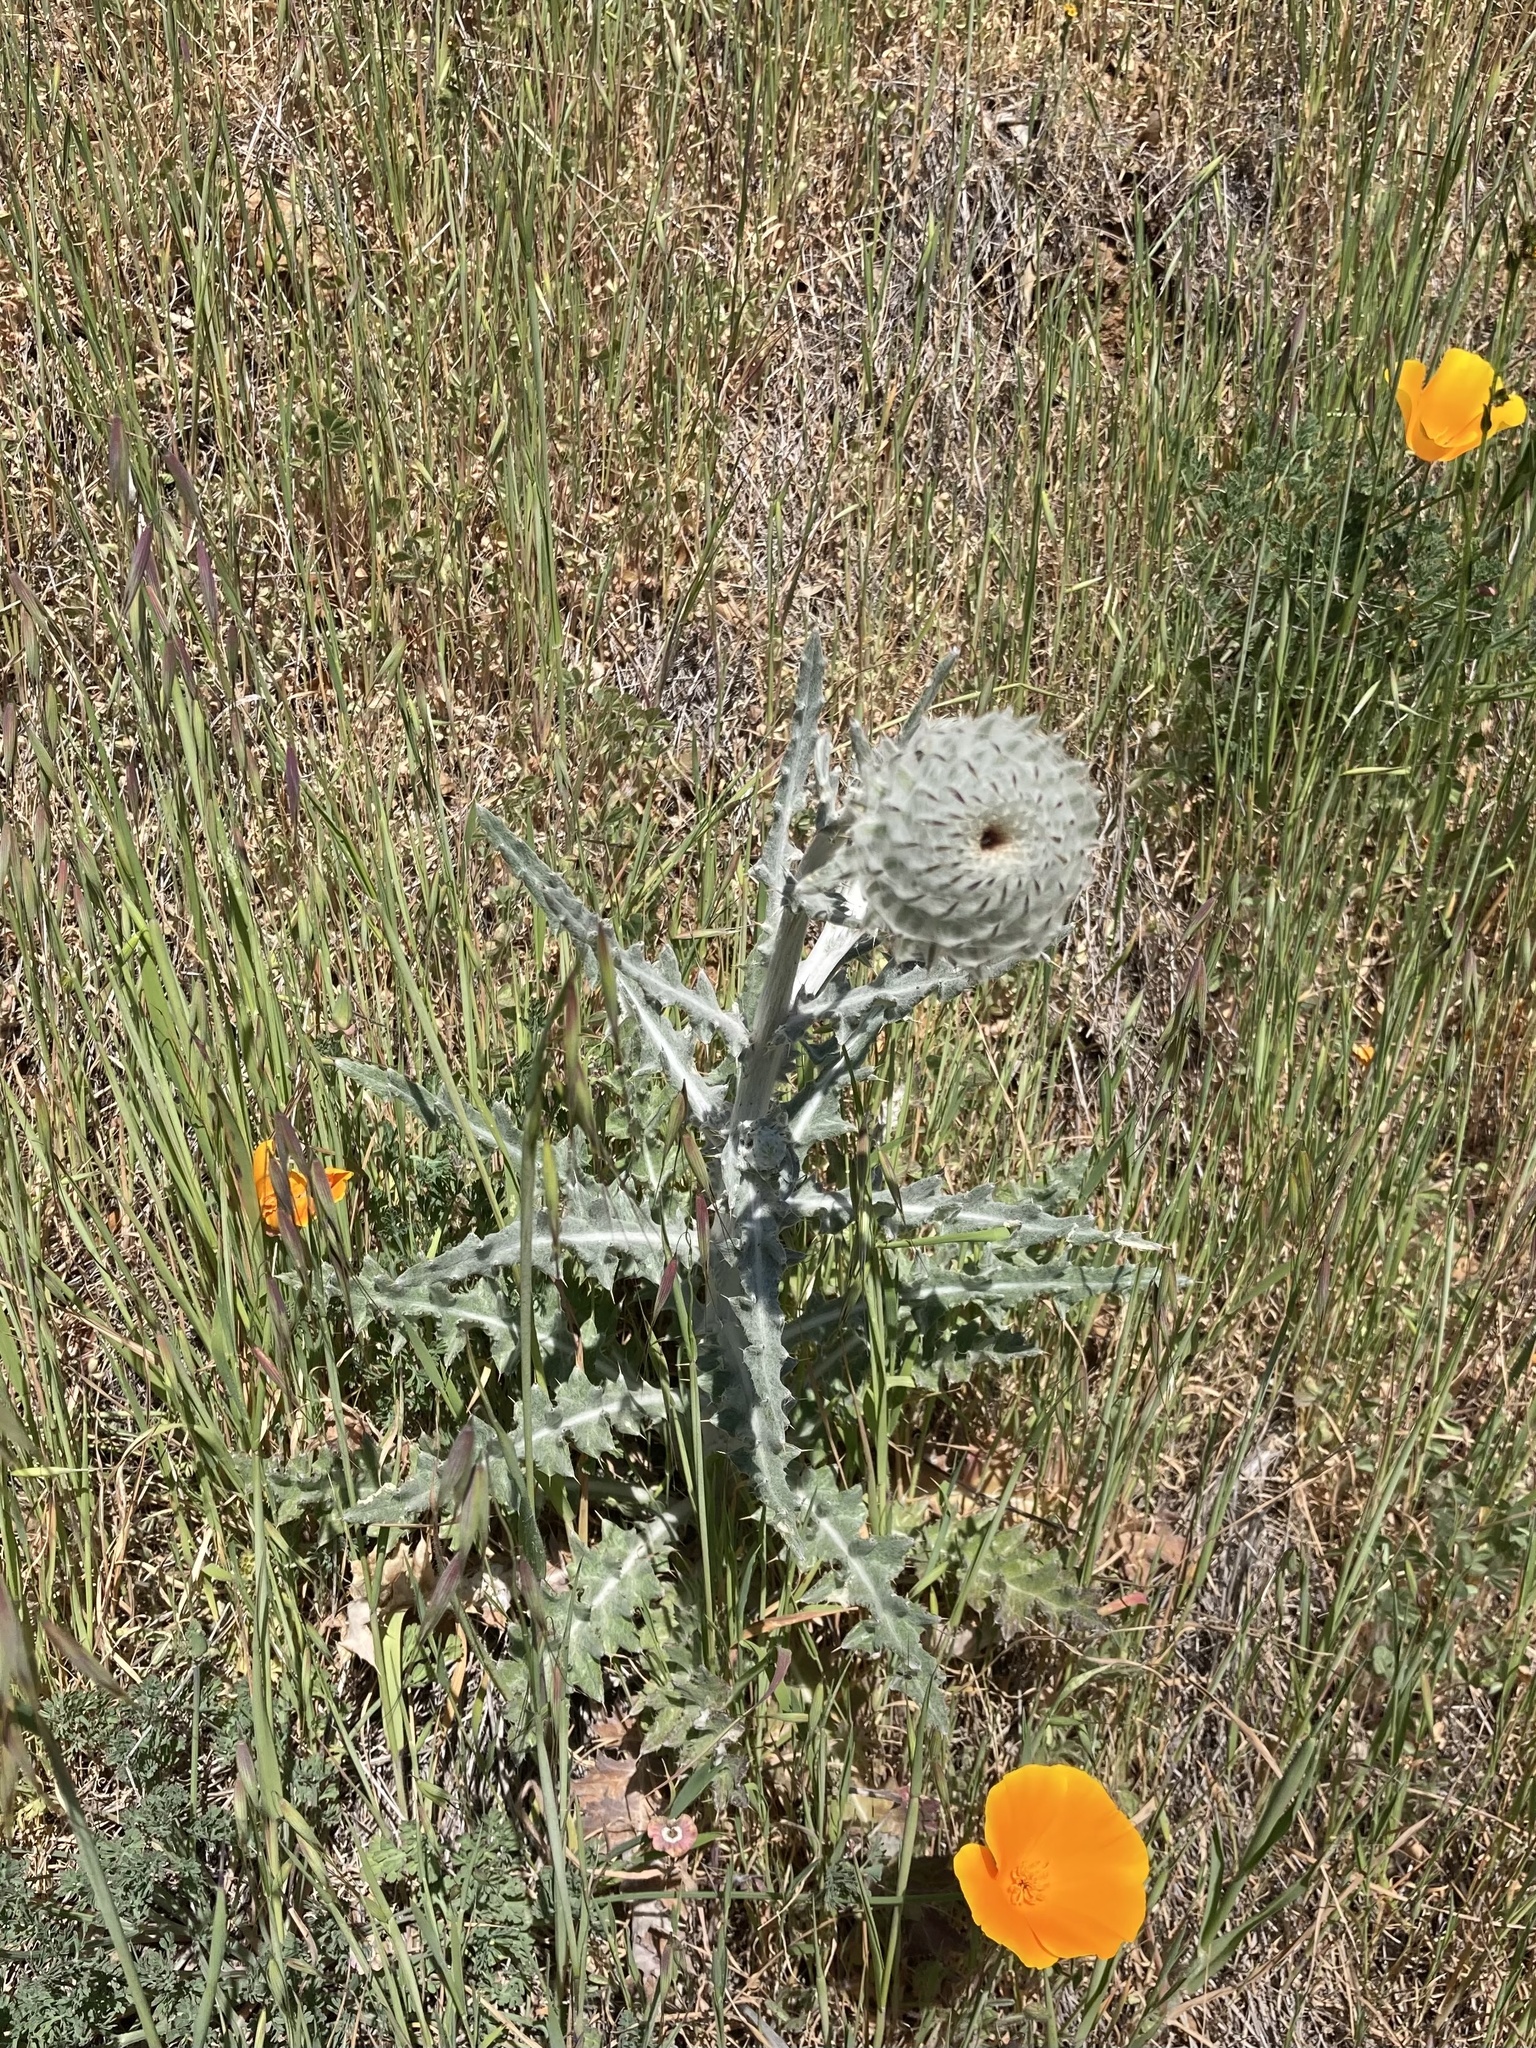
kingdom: Plantae
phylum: Tracheophyta
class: Magnoliopsida
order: Asterales
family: Asteraceae
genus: Cirsium
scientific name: Cirsium occidentale
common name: Western thistle
